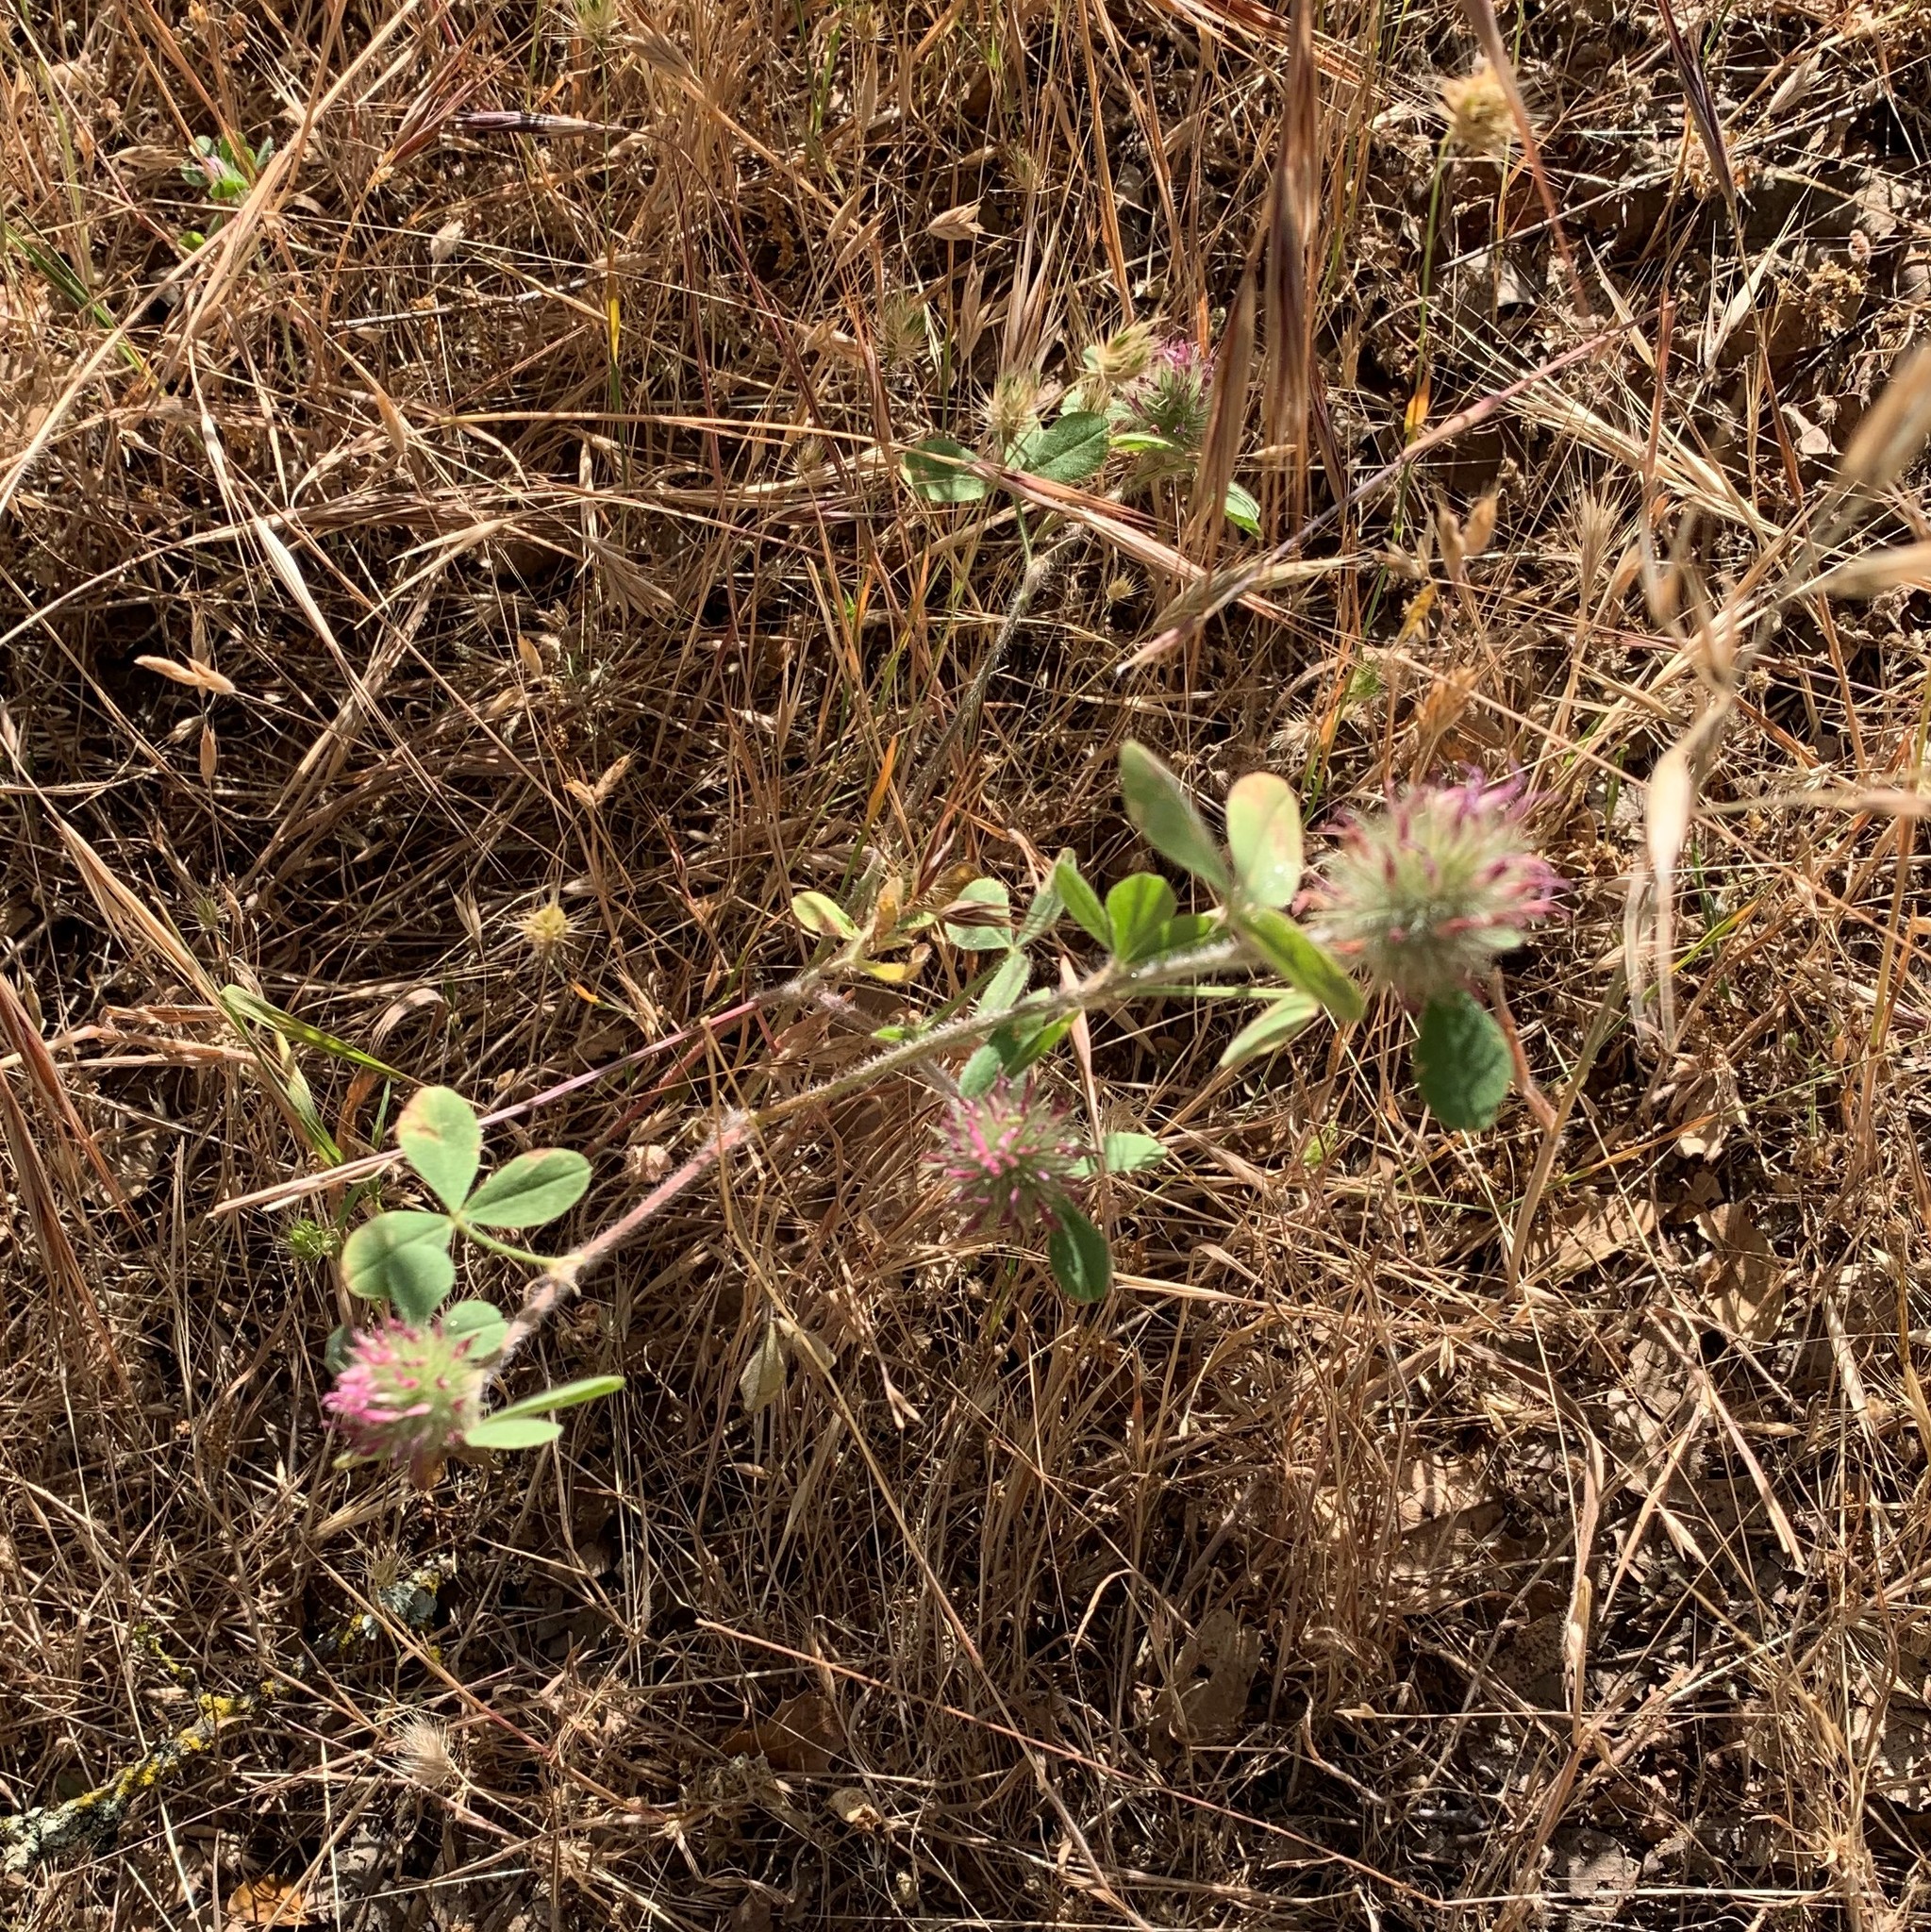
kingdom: Plantae
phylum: Tracheophyta
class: Magnoliopsida
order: Fabales
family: Fabaceae
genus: Trifolium
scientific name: Trifolium hirtum
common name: Rose clover
